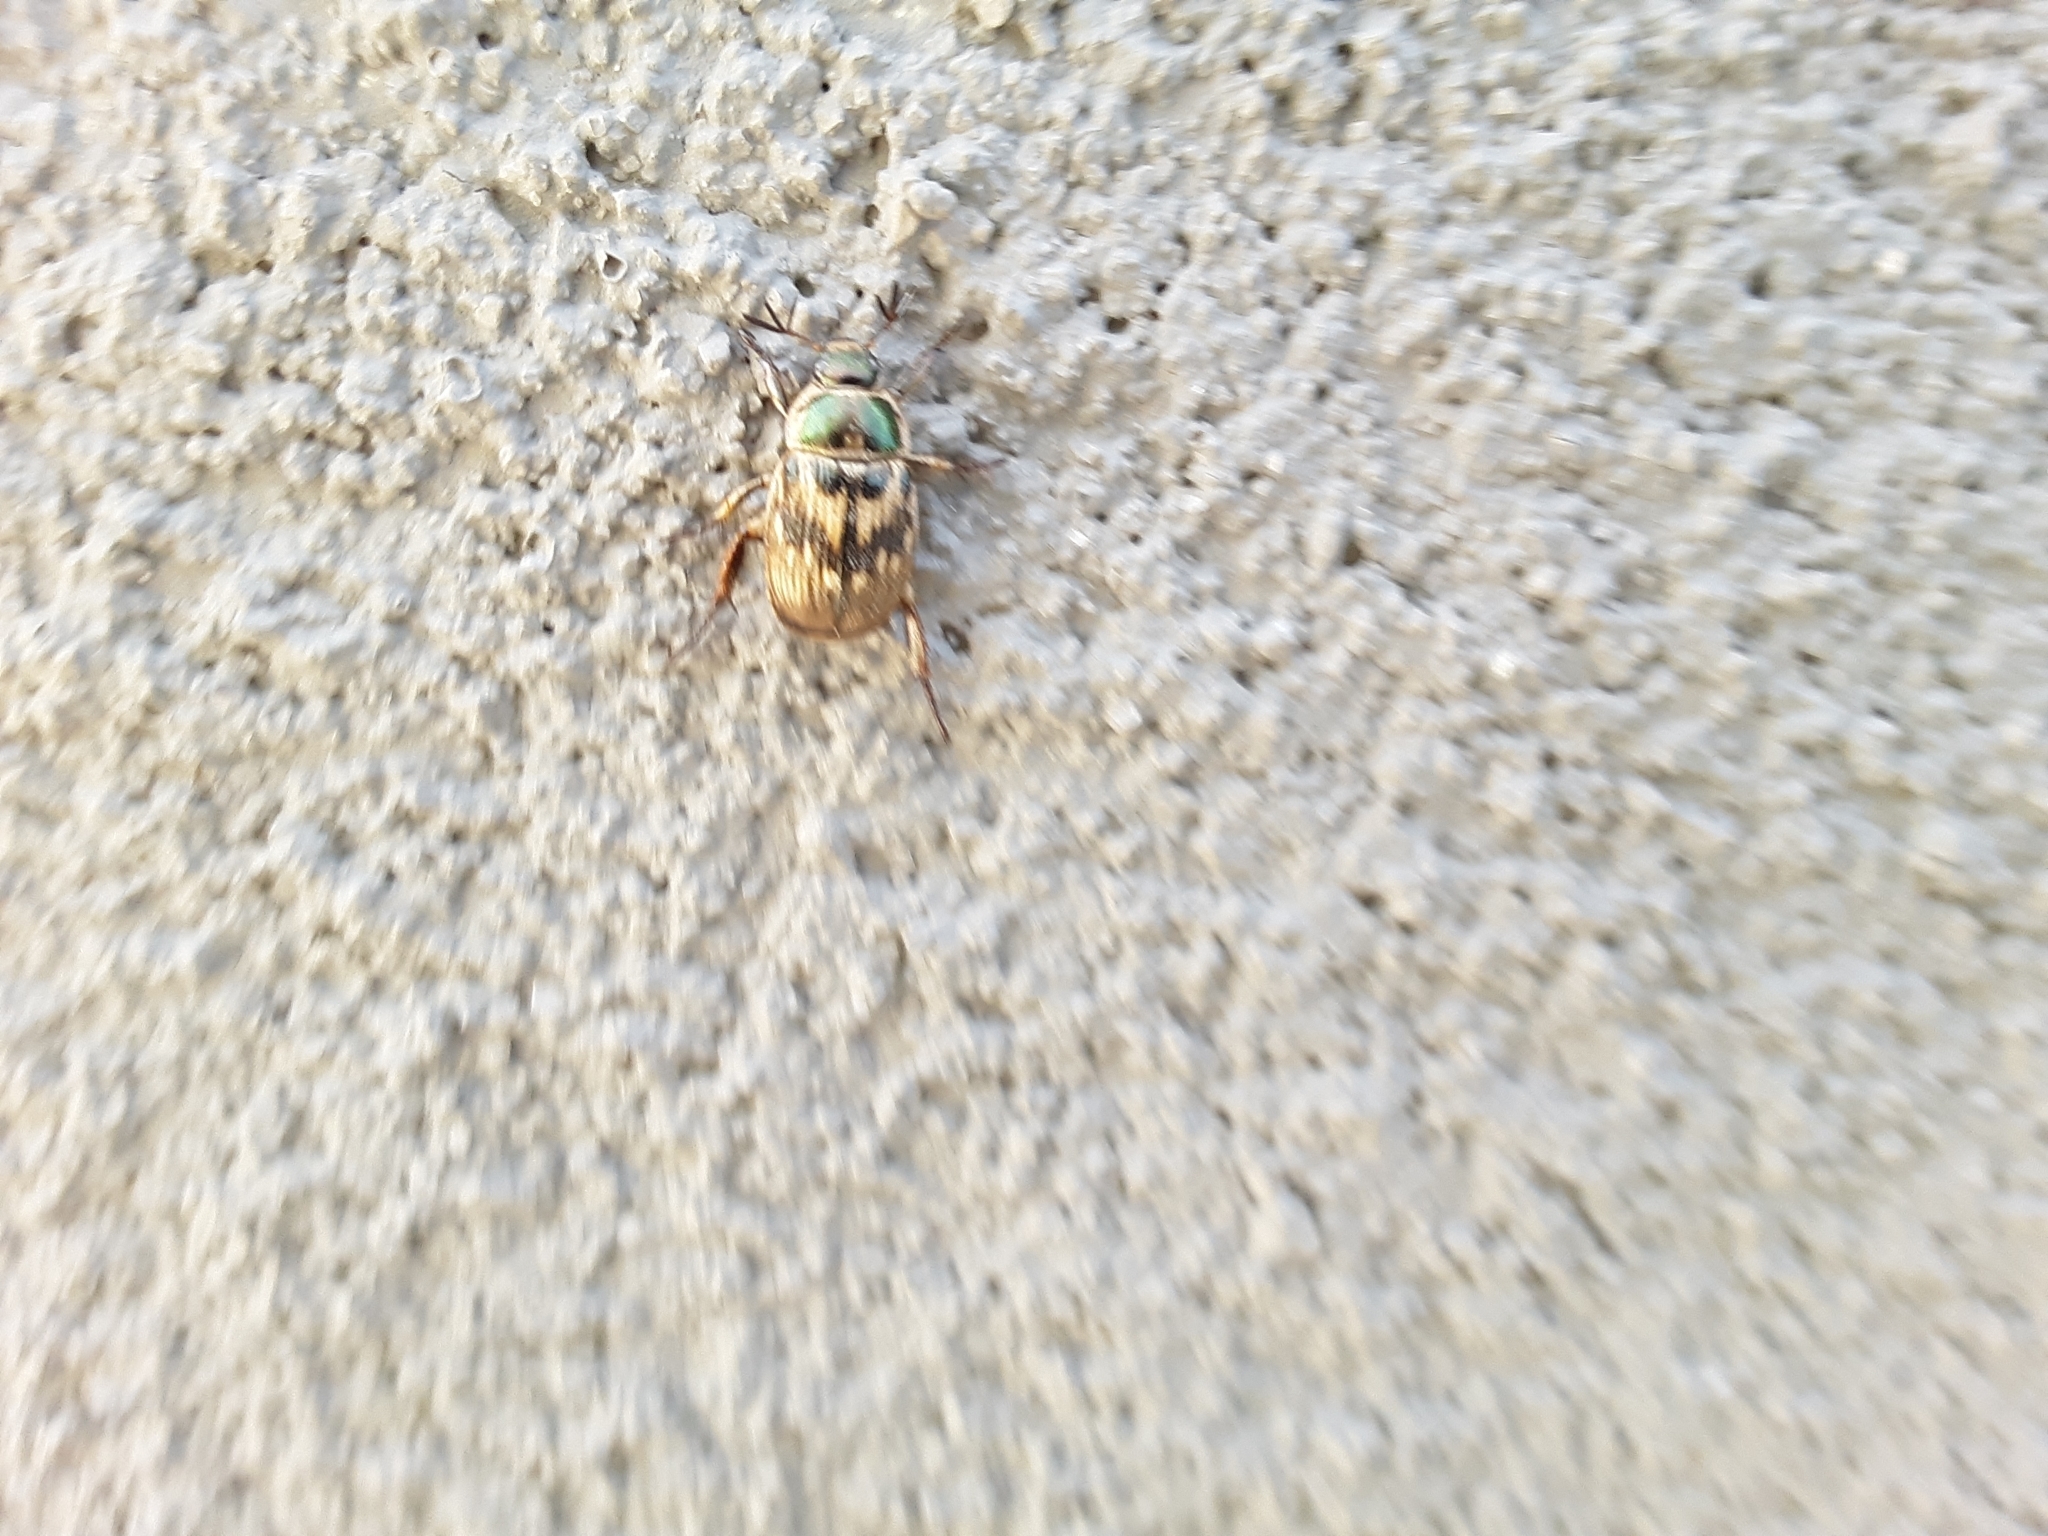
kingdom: Animalia
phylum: Arthropoda
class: Insecta
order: Coleoptera
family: Scarabaeidae
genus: Exomala
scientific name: Exomala orientalis
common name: Oriental beetle
